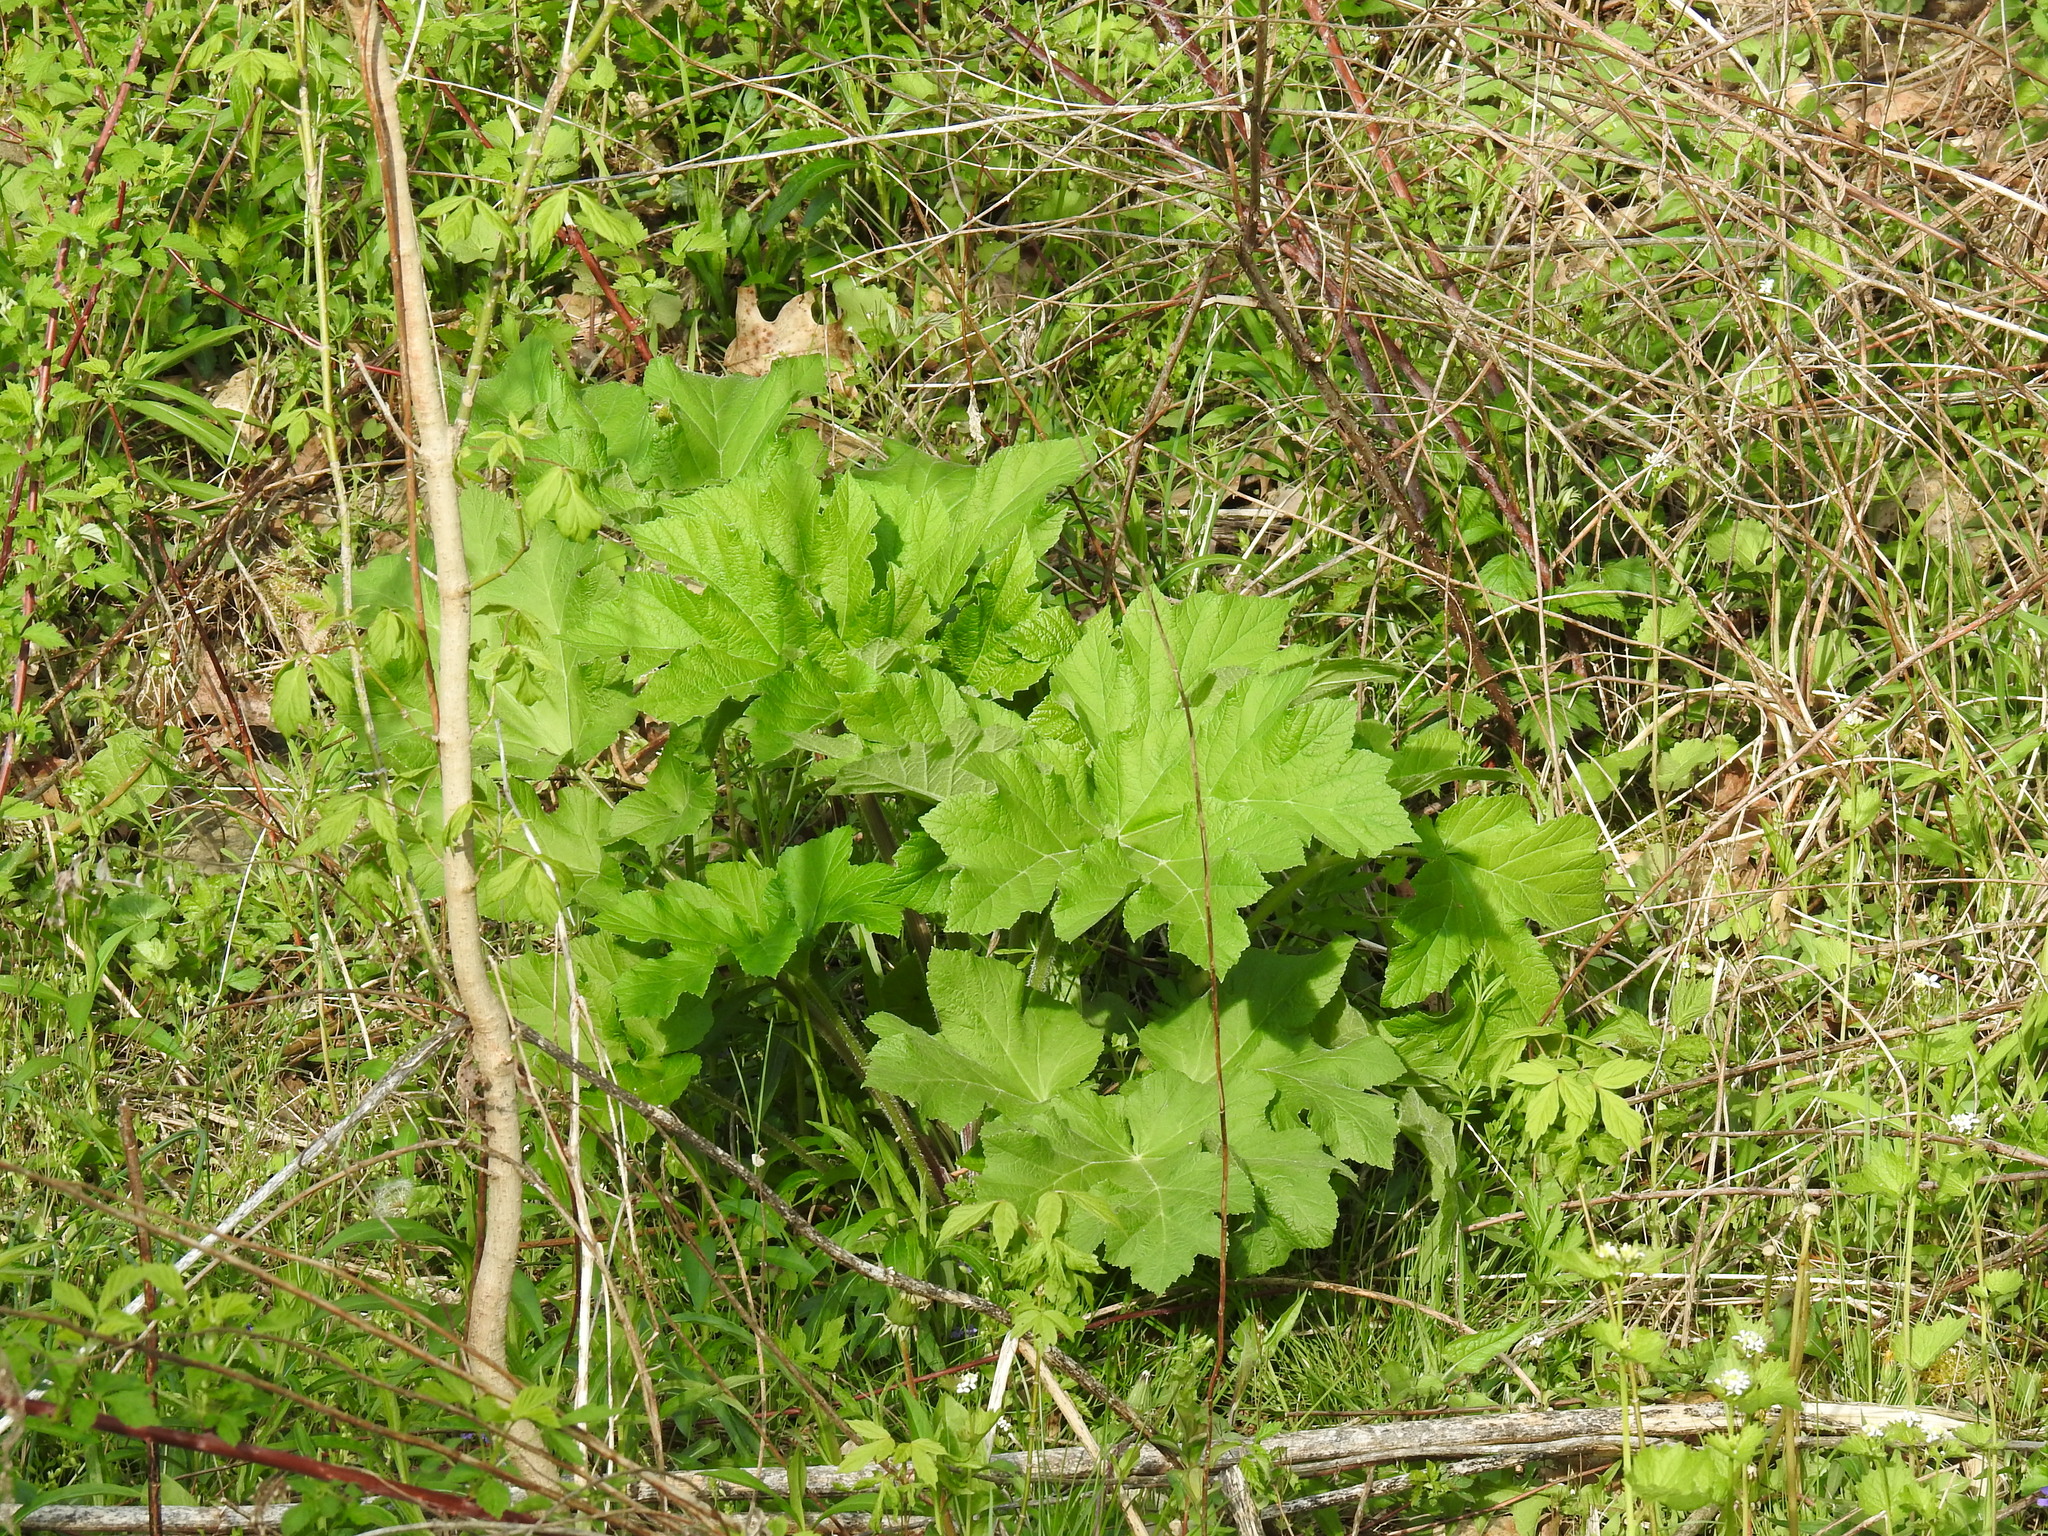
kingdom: Plantae
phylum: Tracheophyta
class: Magnoliopsida
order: Apiales
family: Apiaceae
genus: Heracleum
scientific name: Heracleum maximum
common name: American cow parsnip
